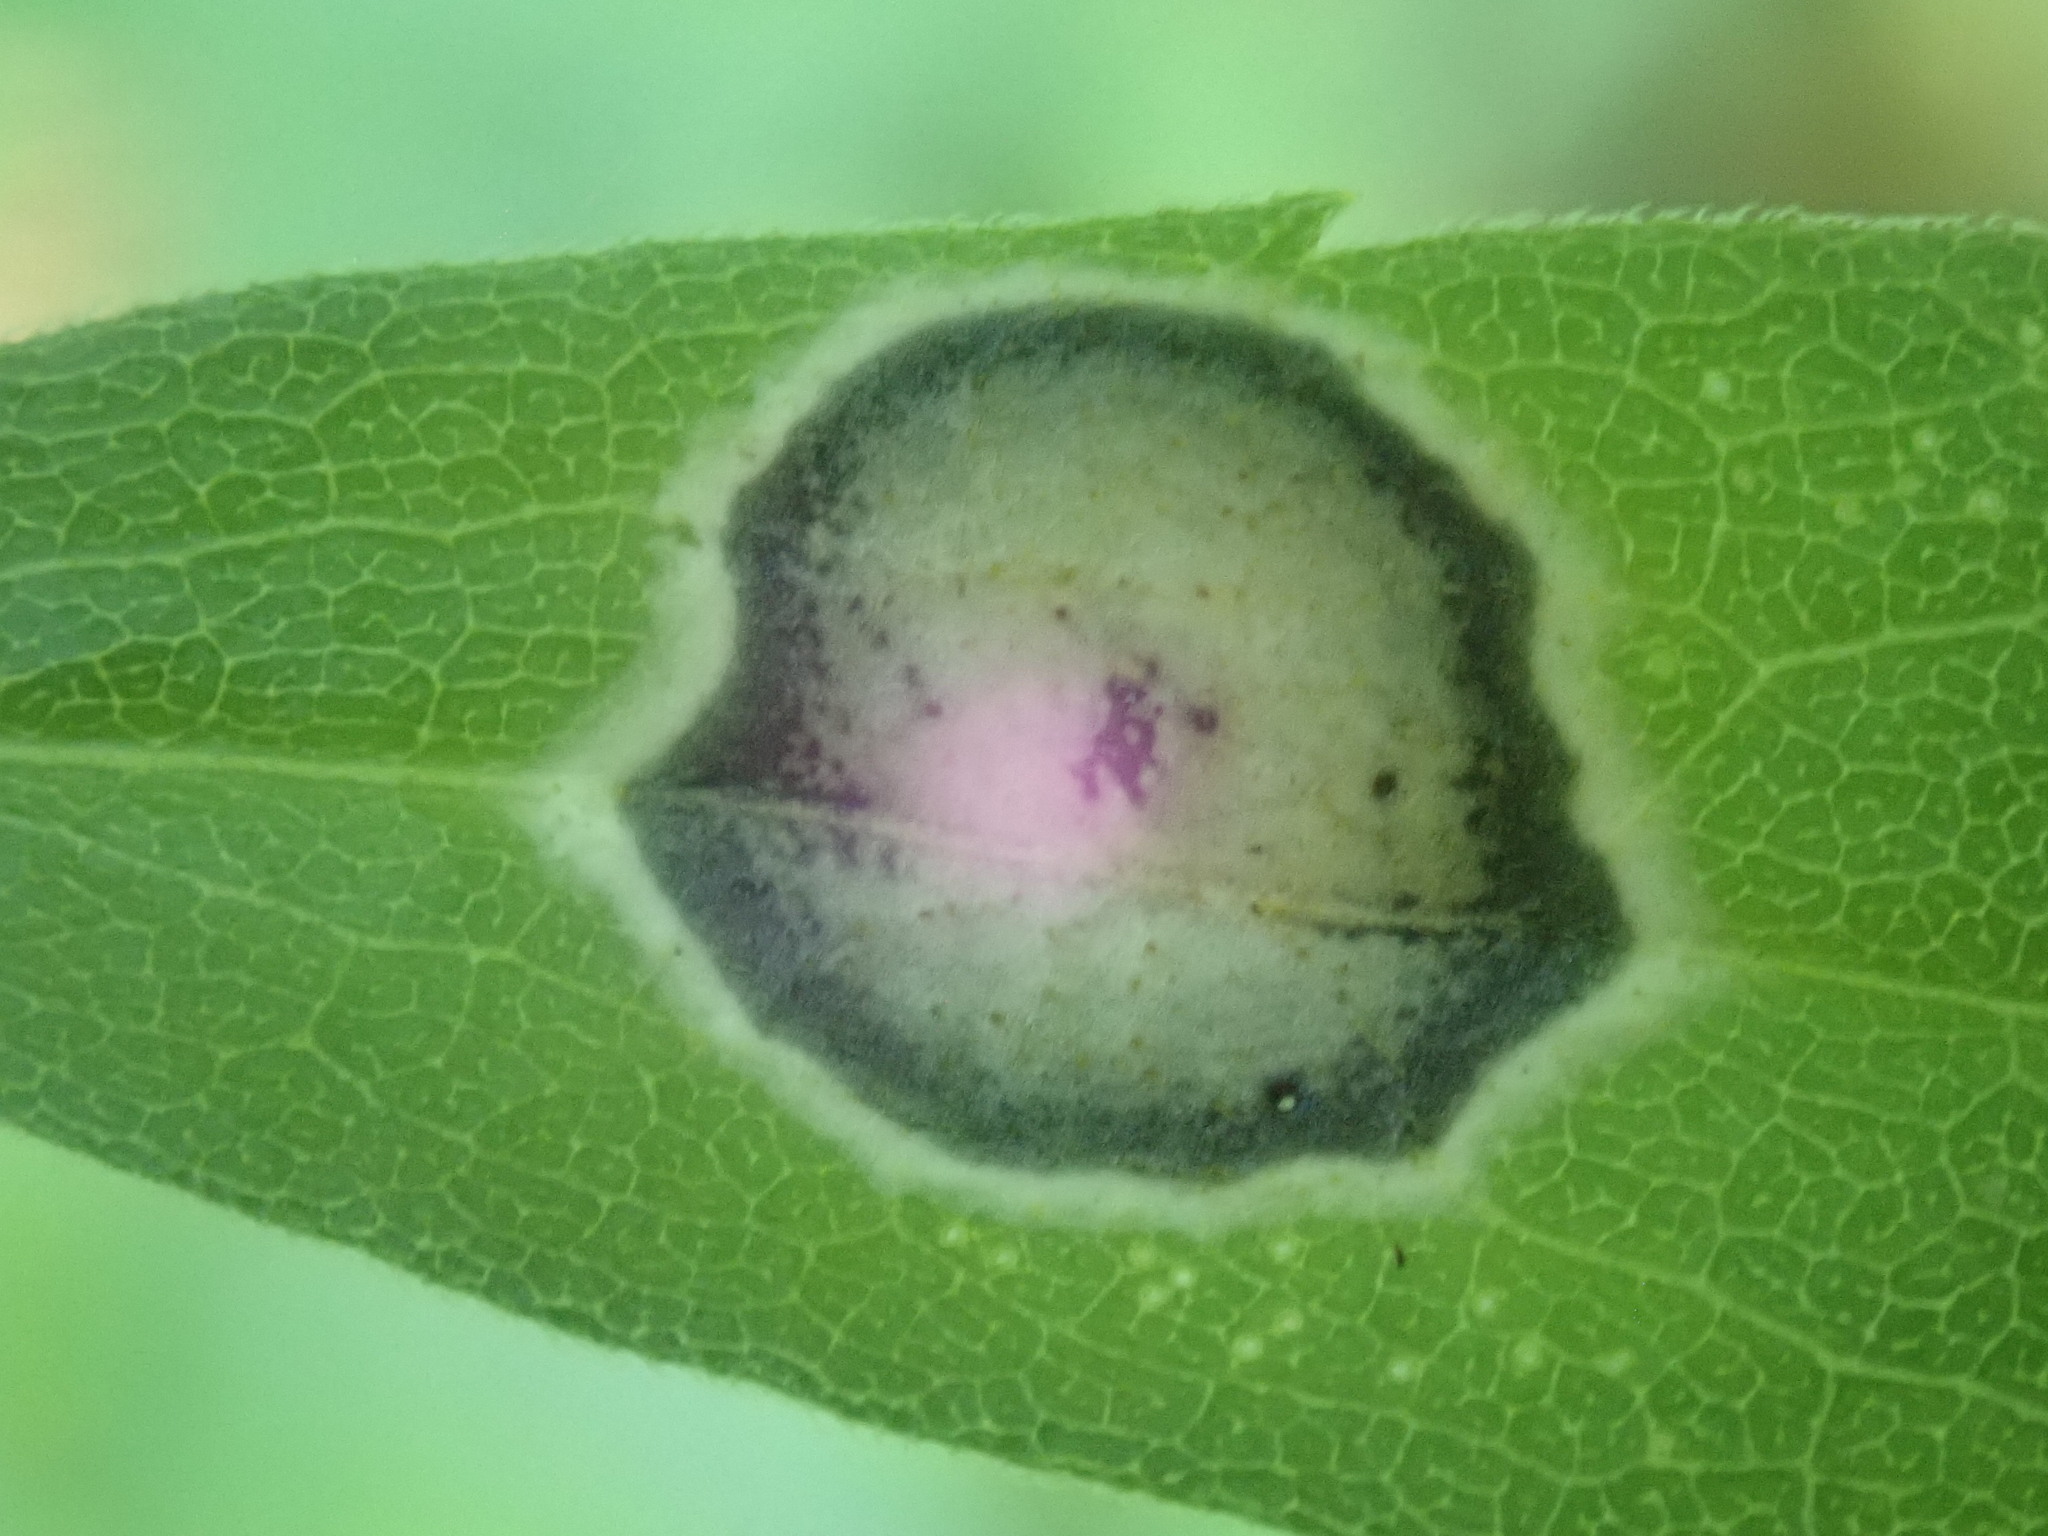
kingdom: Animalia
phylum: Arthropoda
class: Insecta
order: Diptera
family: Cecidomyiidae
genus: Asteromyia
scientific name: Asteromyia carbonifera
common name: Carbonifera goldenrod gall midge
